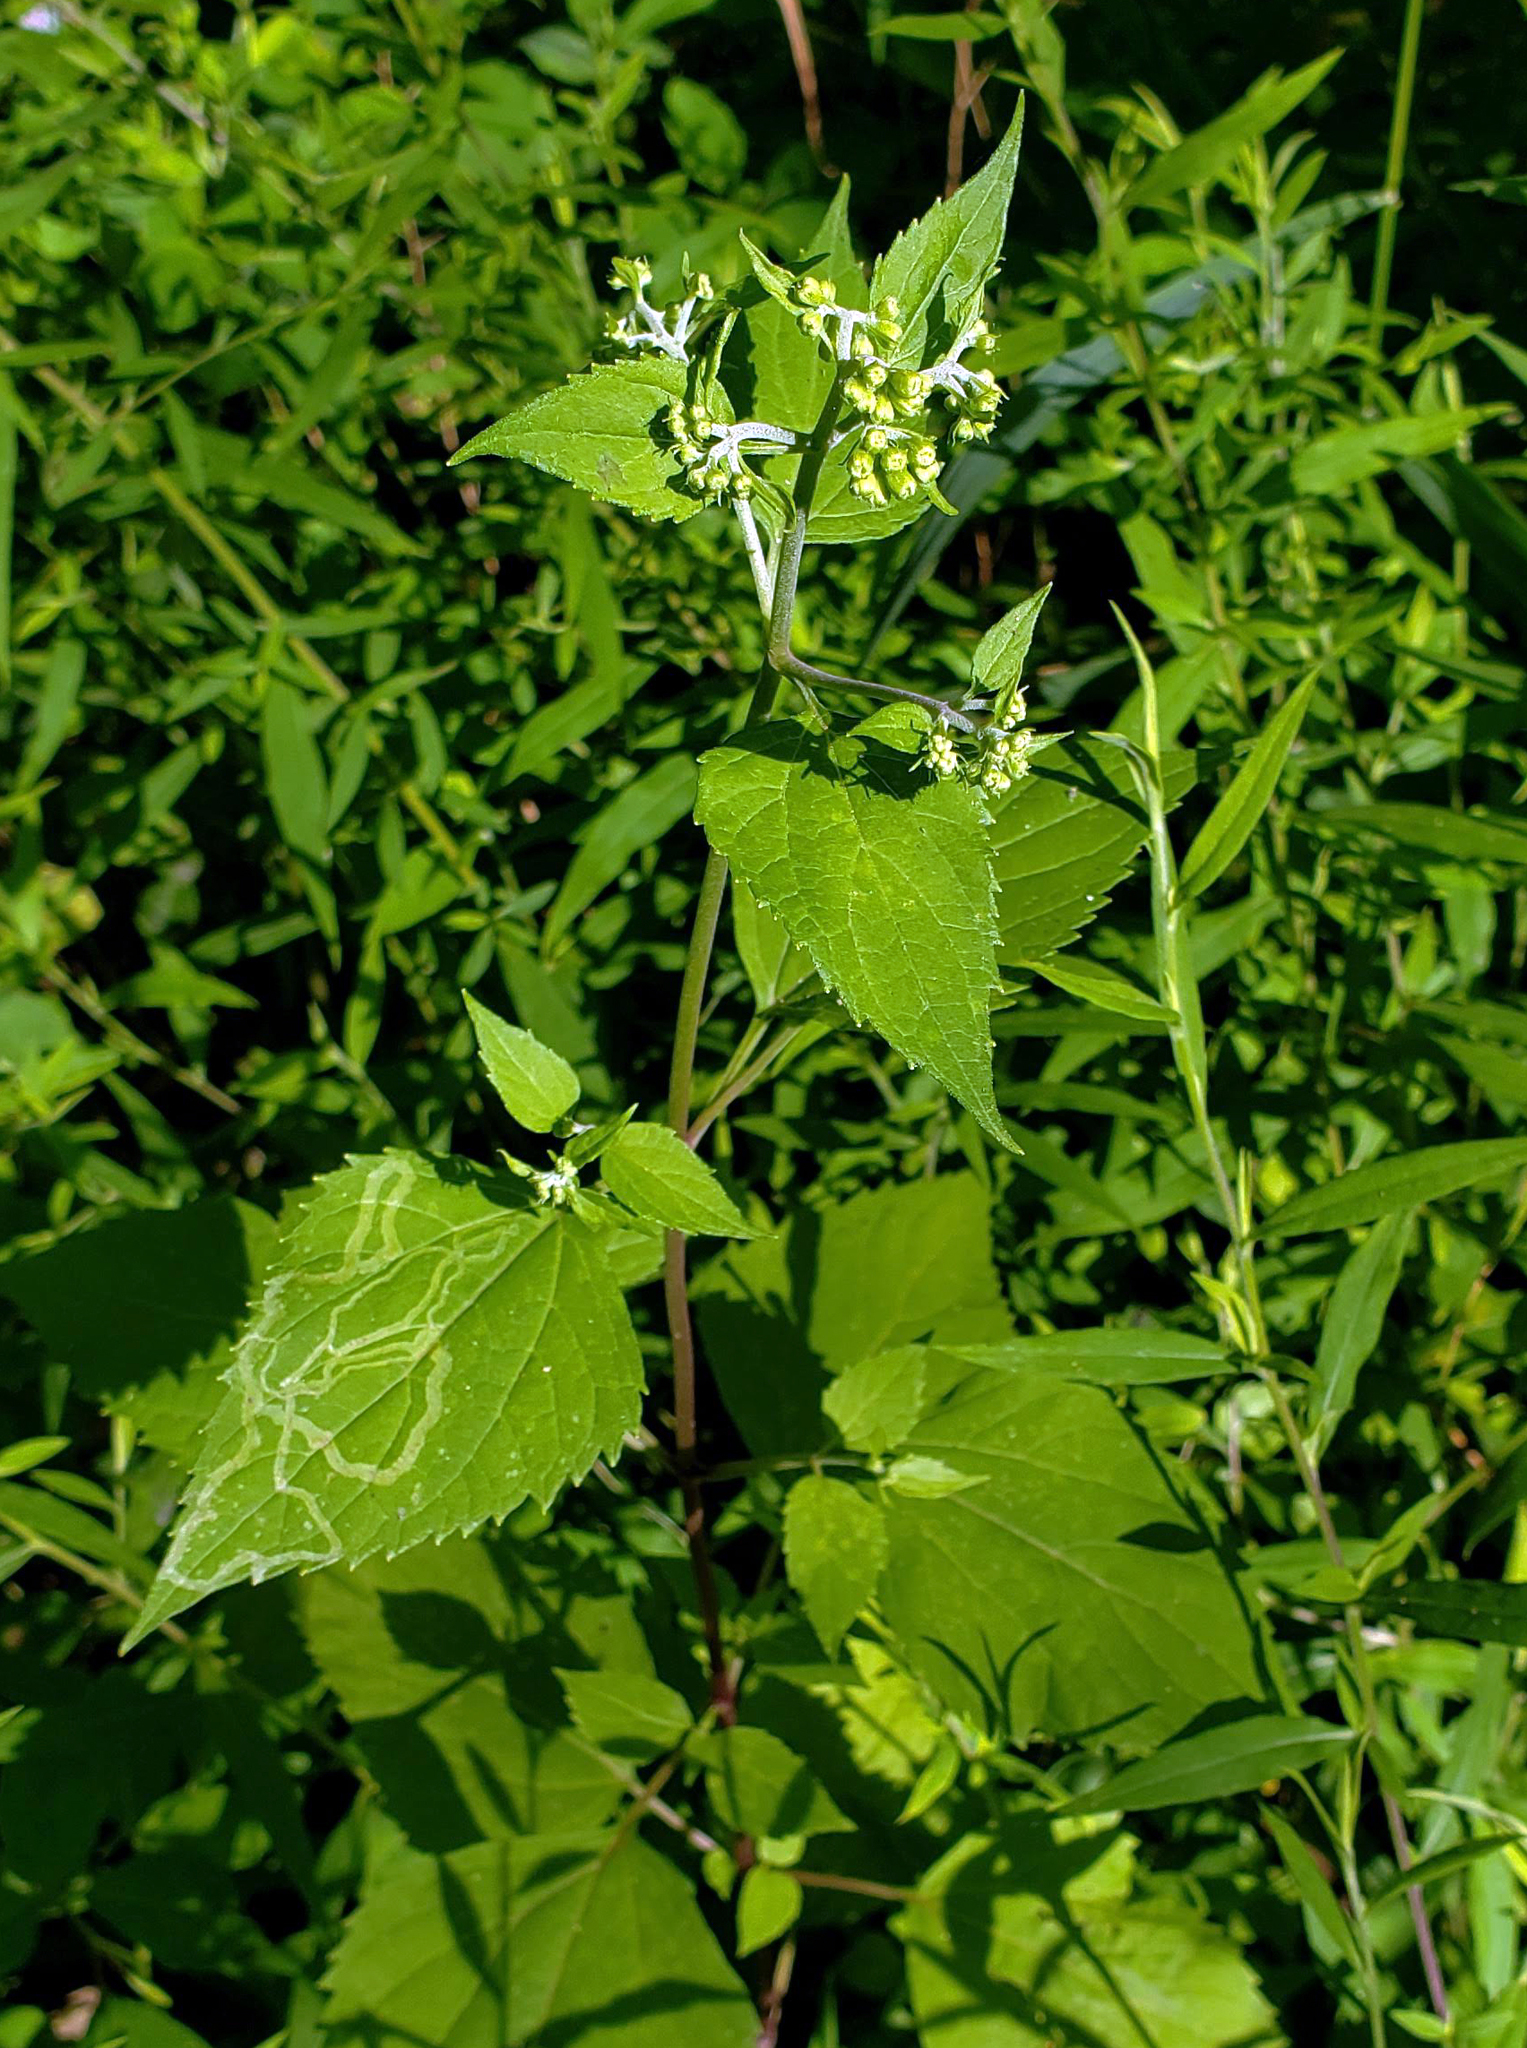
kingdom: Plantae
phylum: Tracheophyta
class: Magnoliopsida
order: Asterales
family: Asteraceae
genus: Ageratina
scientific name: Ageratina altissima
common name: White snakeroot
